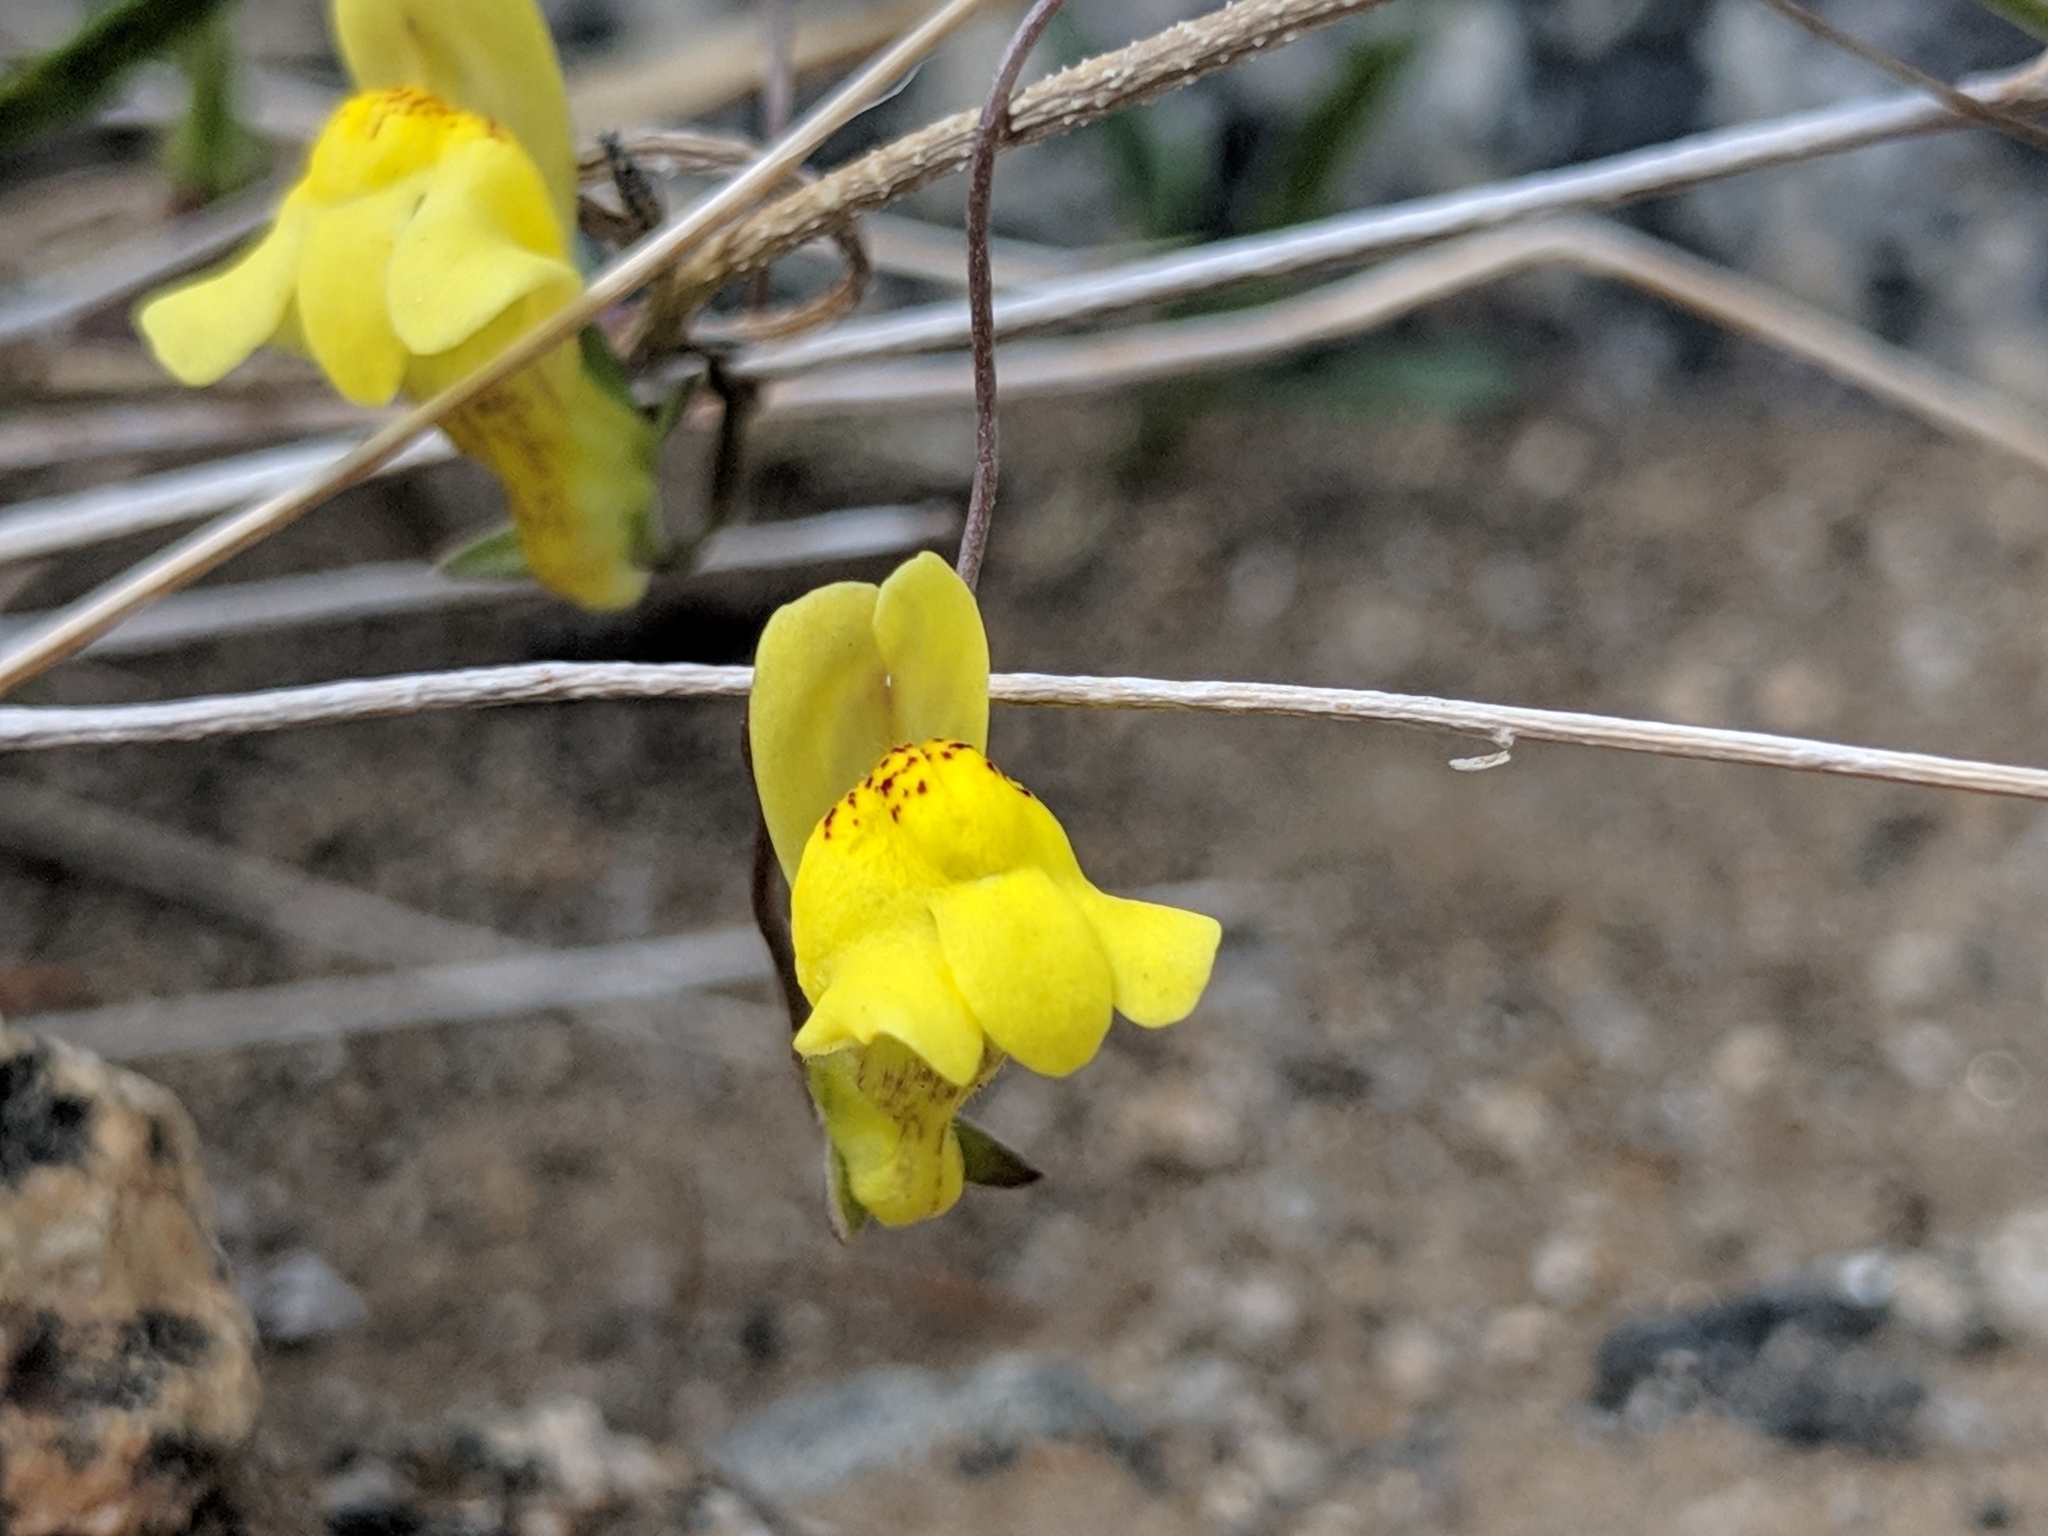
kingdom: Plantae
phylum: Tracheophyta
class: Magnoliopsida
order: Lamiales
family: Plantaginaceae
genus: Neogaerrhinum
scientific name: Neogaerrhinum filipes
